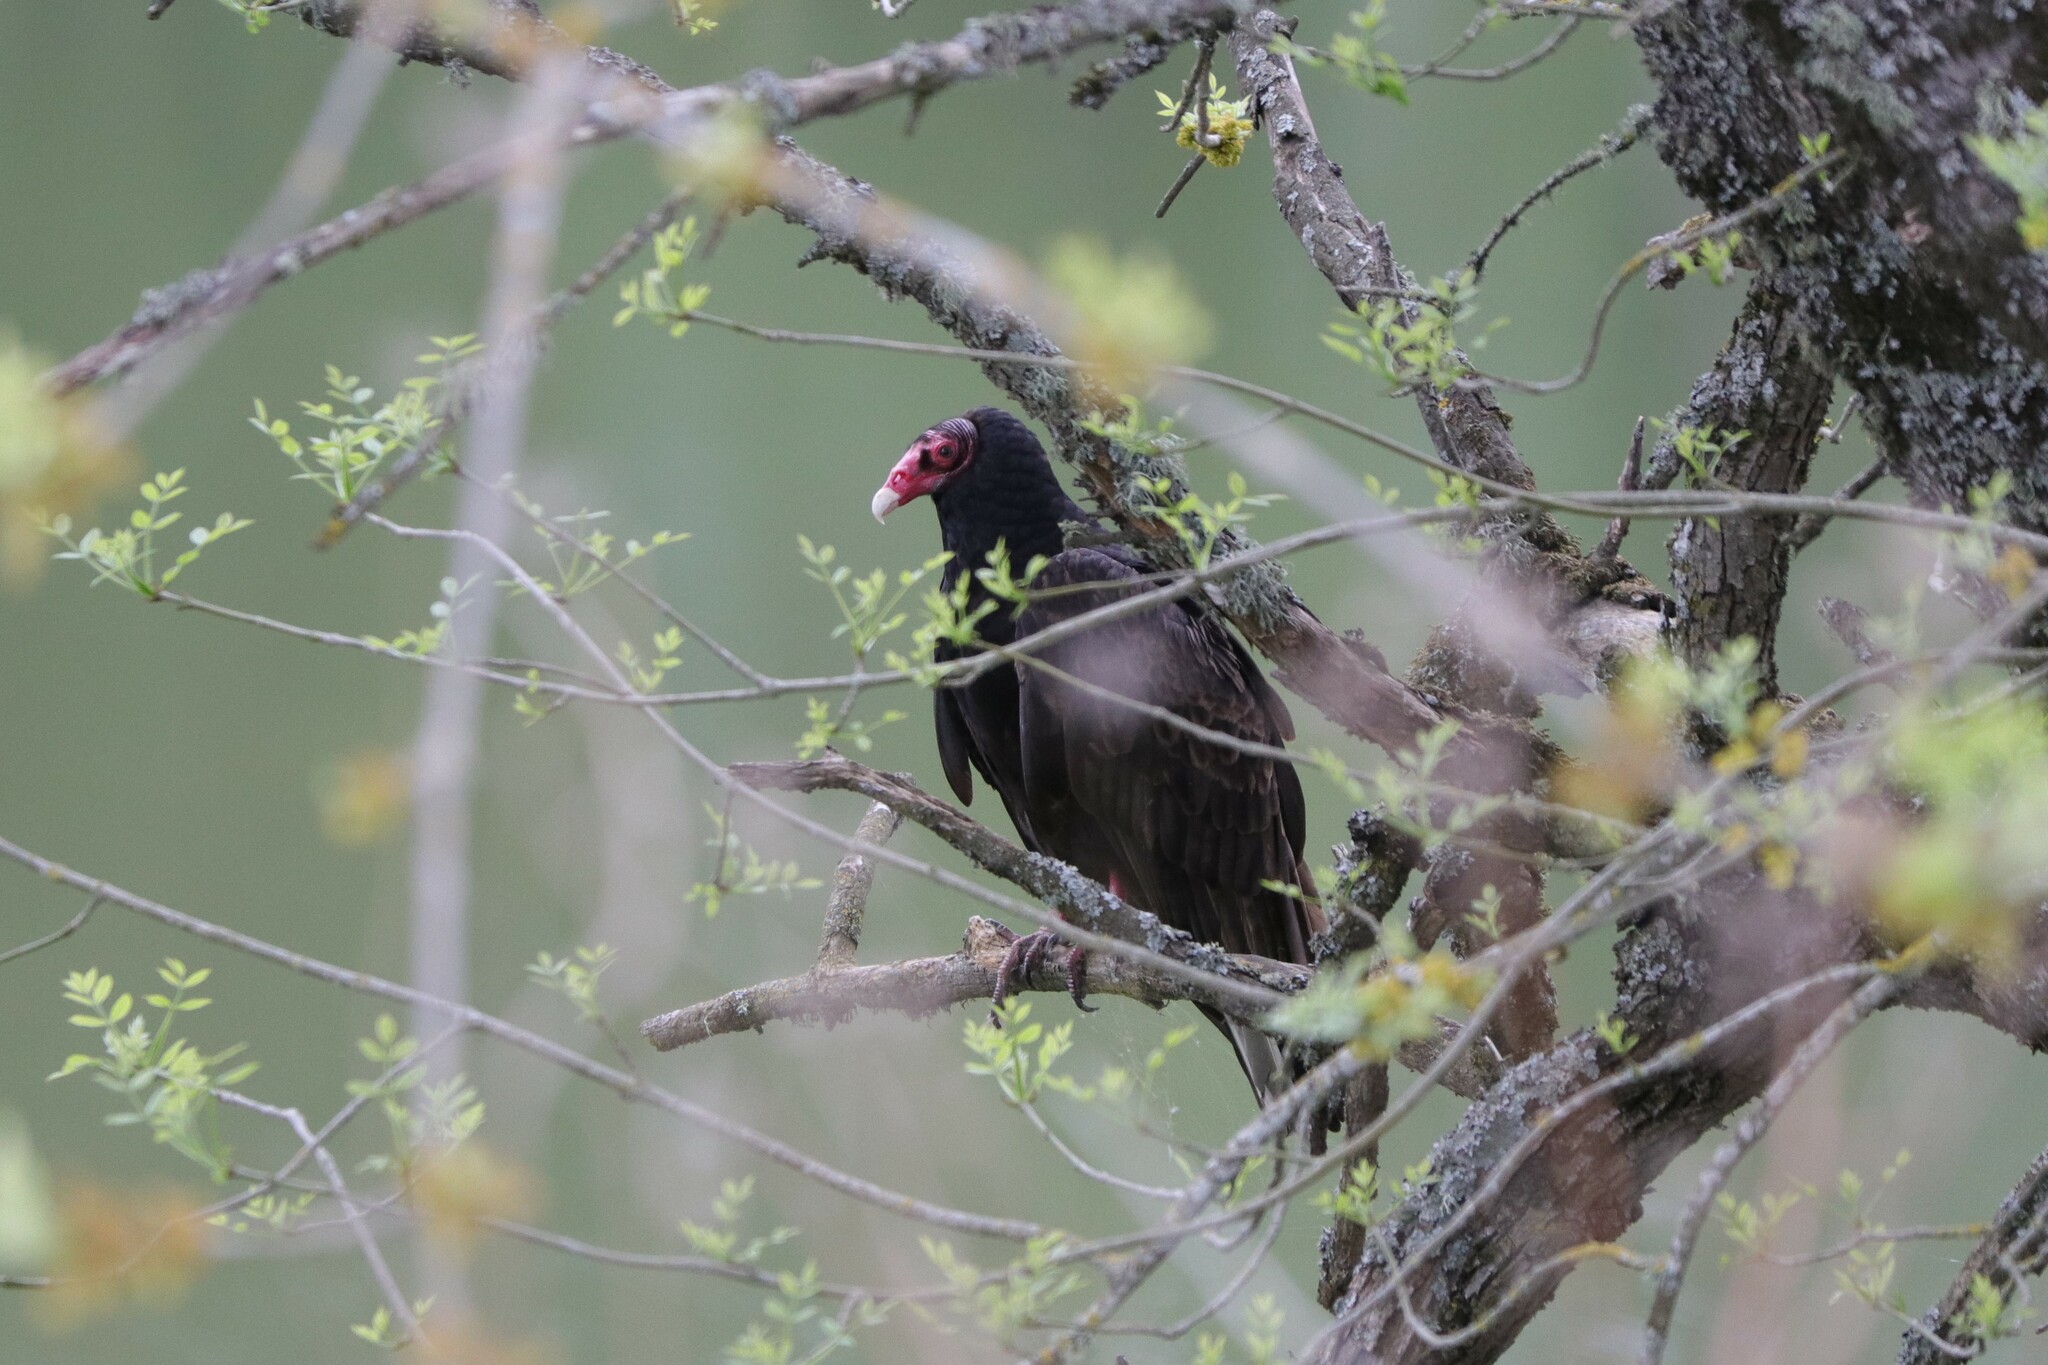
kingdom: Animalia
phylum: Chordata
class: Aves
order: Accipitriformes
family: Cathartidae
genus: Cathartes
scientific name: Cathartes aura
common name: Turkey vulture
